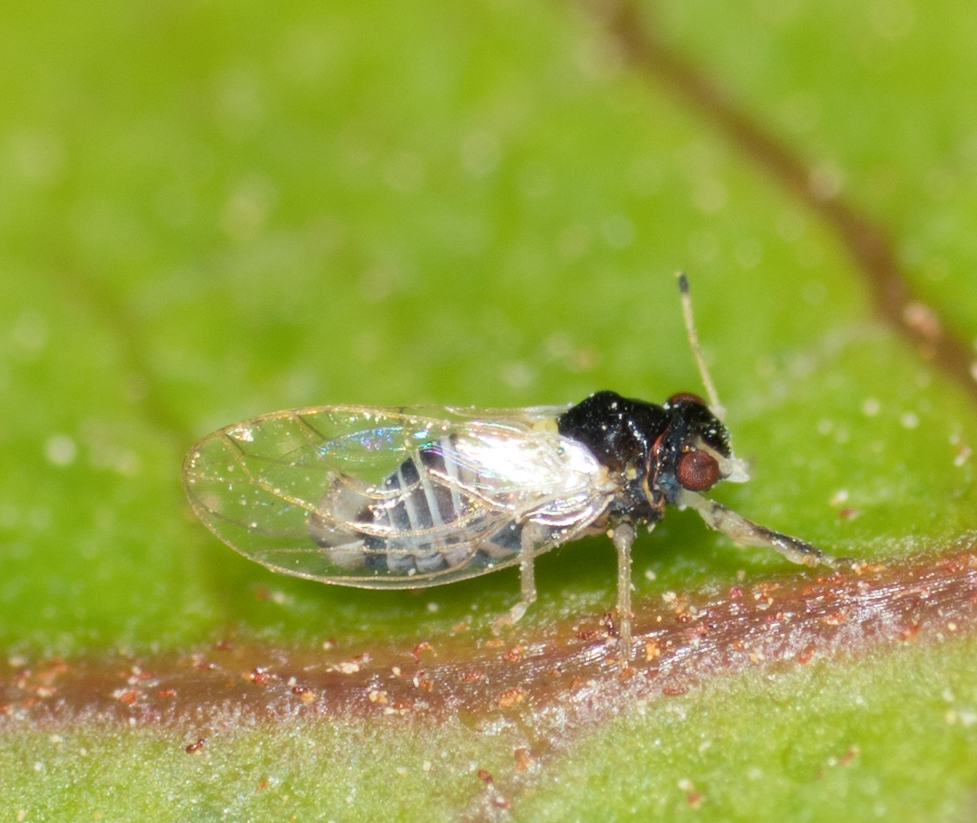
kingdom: Animalia
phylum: Arthropoda
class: Insecta
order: Hemiptera
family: Calophyidae
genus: Calophya
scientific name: Calophya californica
